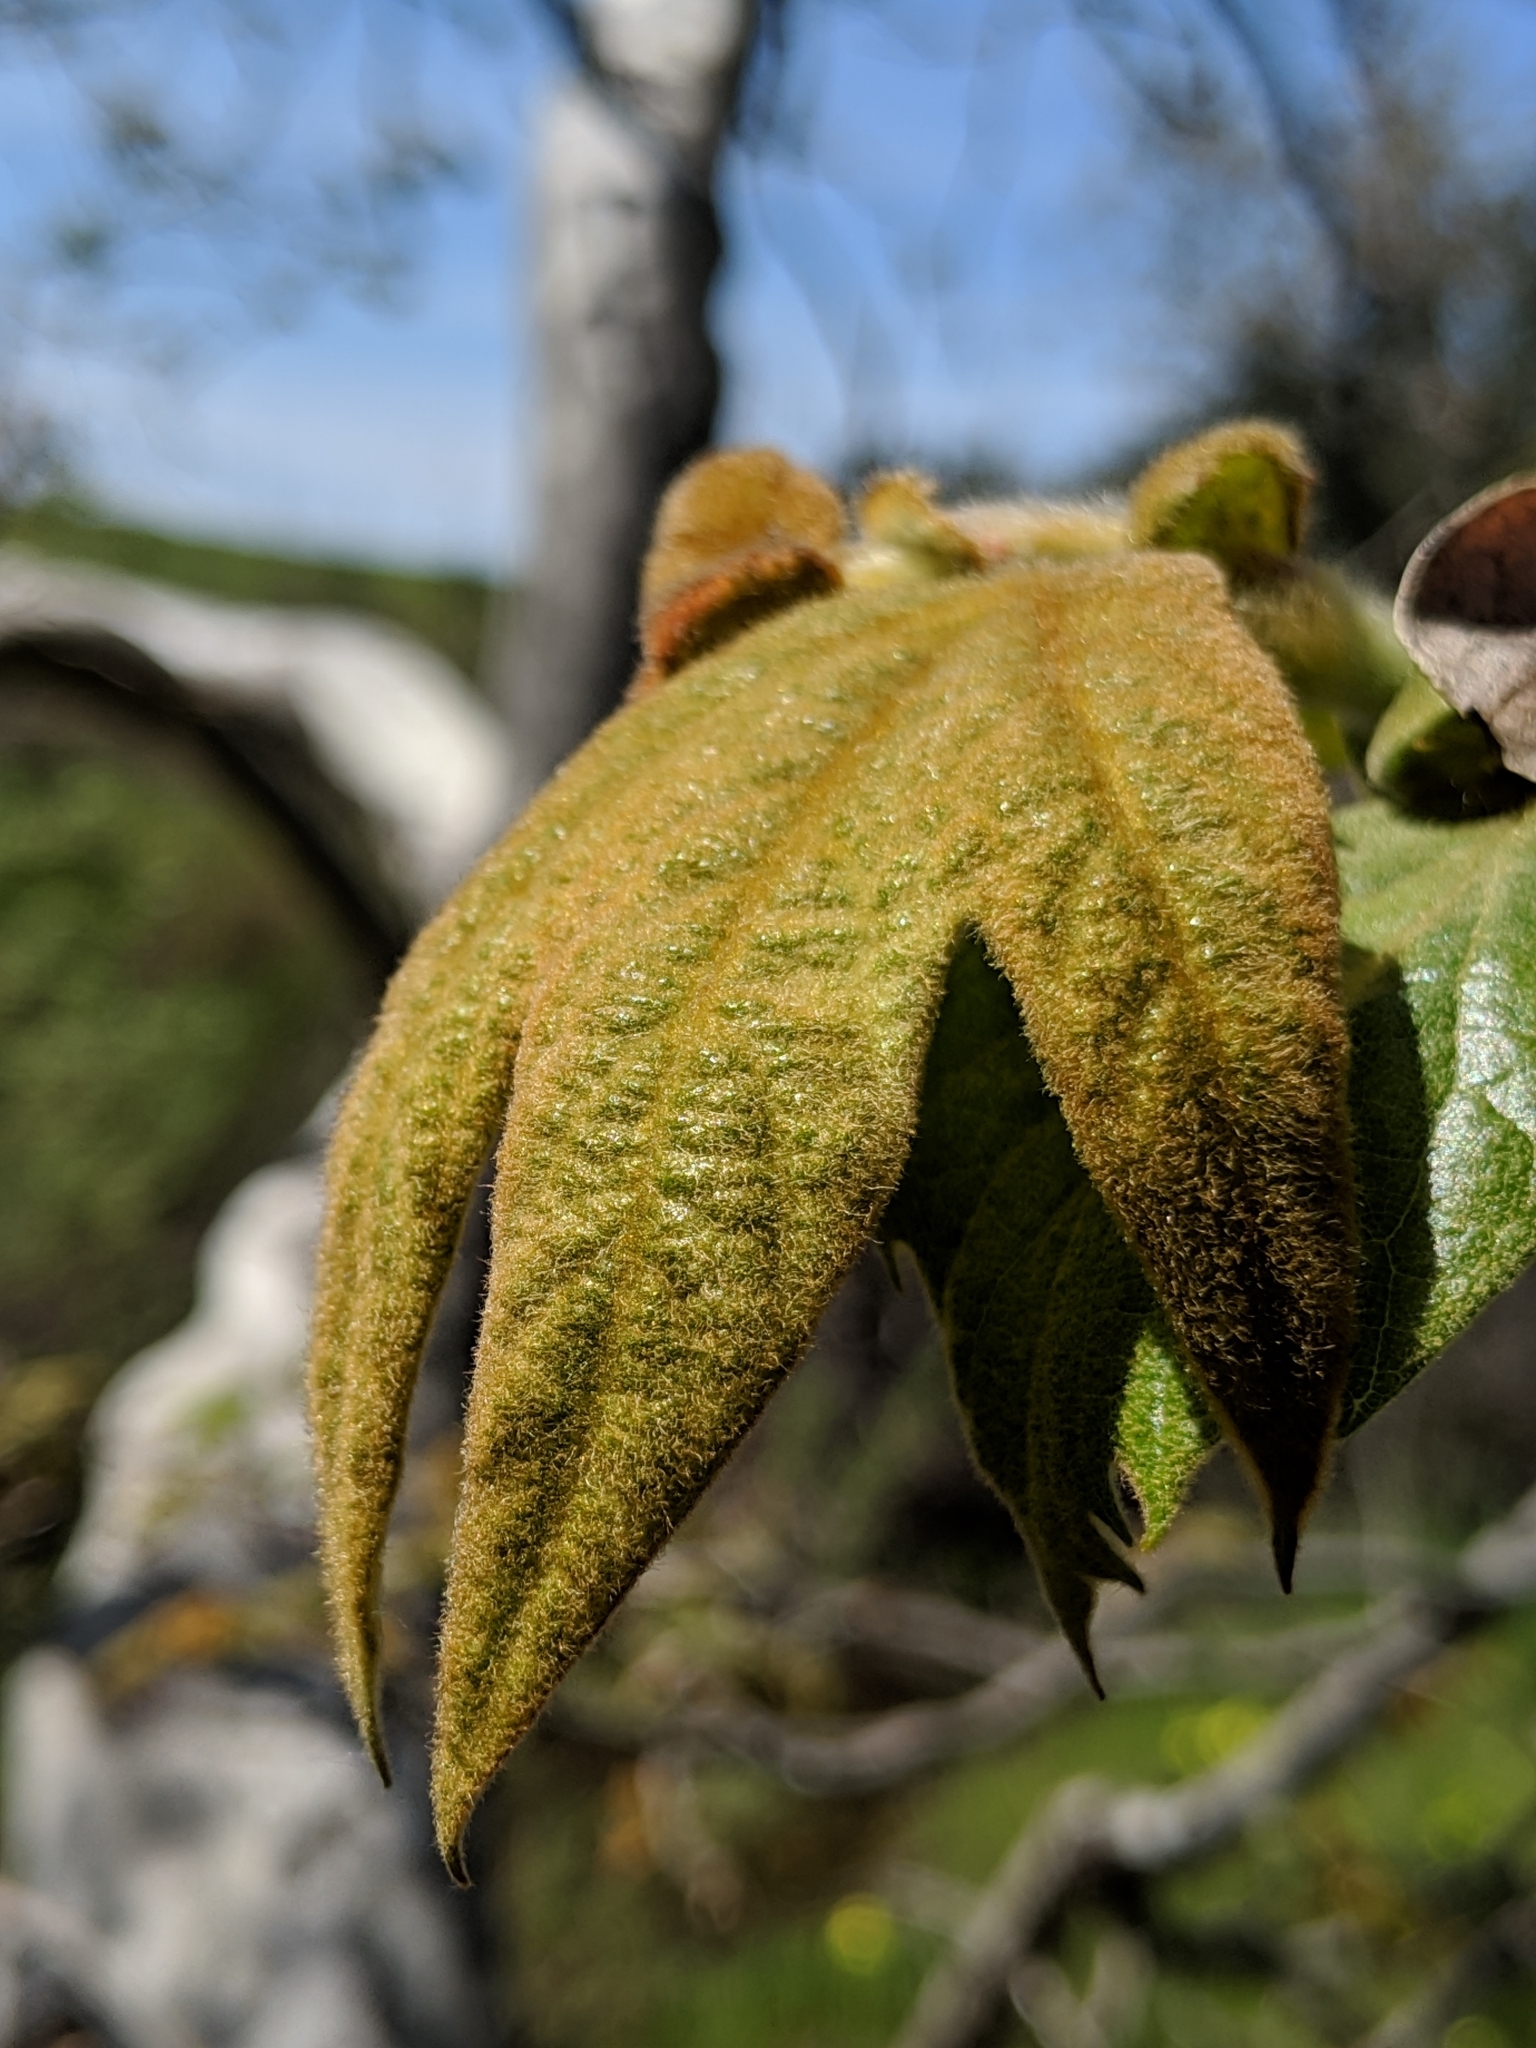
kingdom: Plantae
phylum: Tracheophyta
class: Magnoliopsida
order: Proteales
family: Platanaceae
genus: Platanus
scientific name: Platanus racemosa
